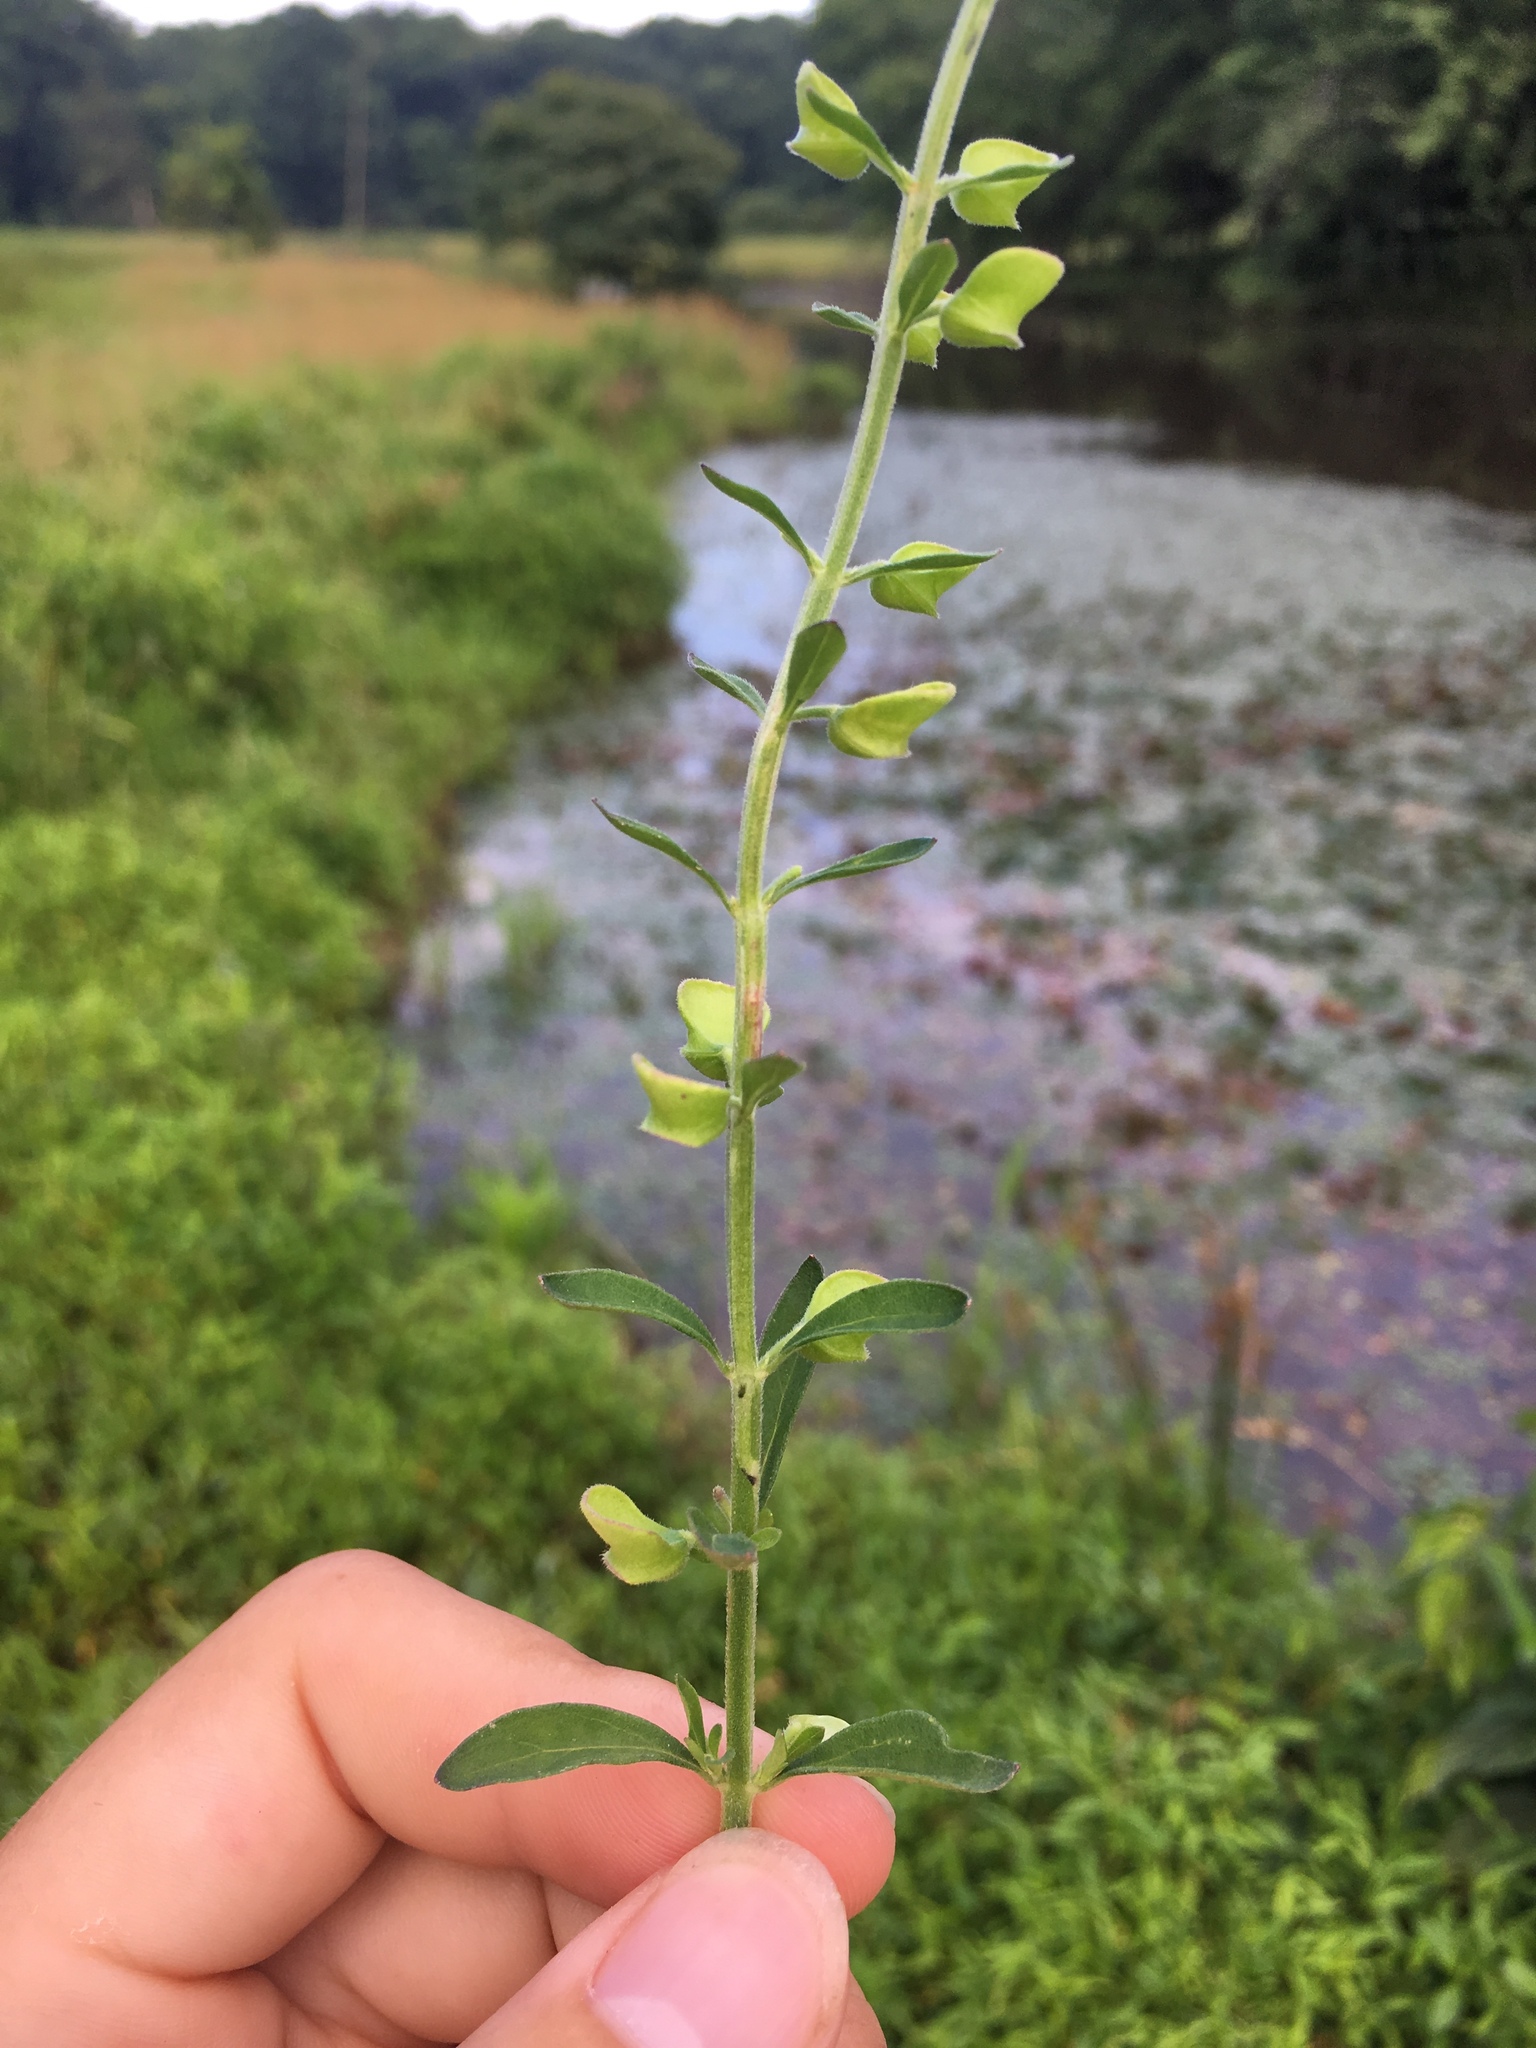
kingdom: Plantae
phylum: Tracheophyta
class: Magnoliopsida
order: Lamiales
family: Lamiaceae
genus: Scutellaria
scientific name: Scutellaria integrifolia
